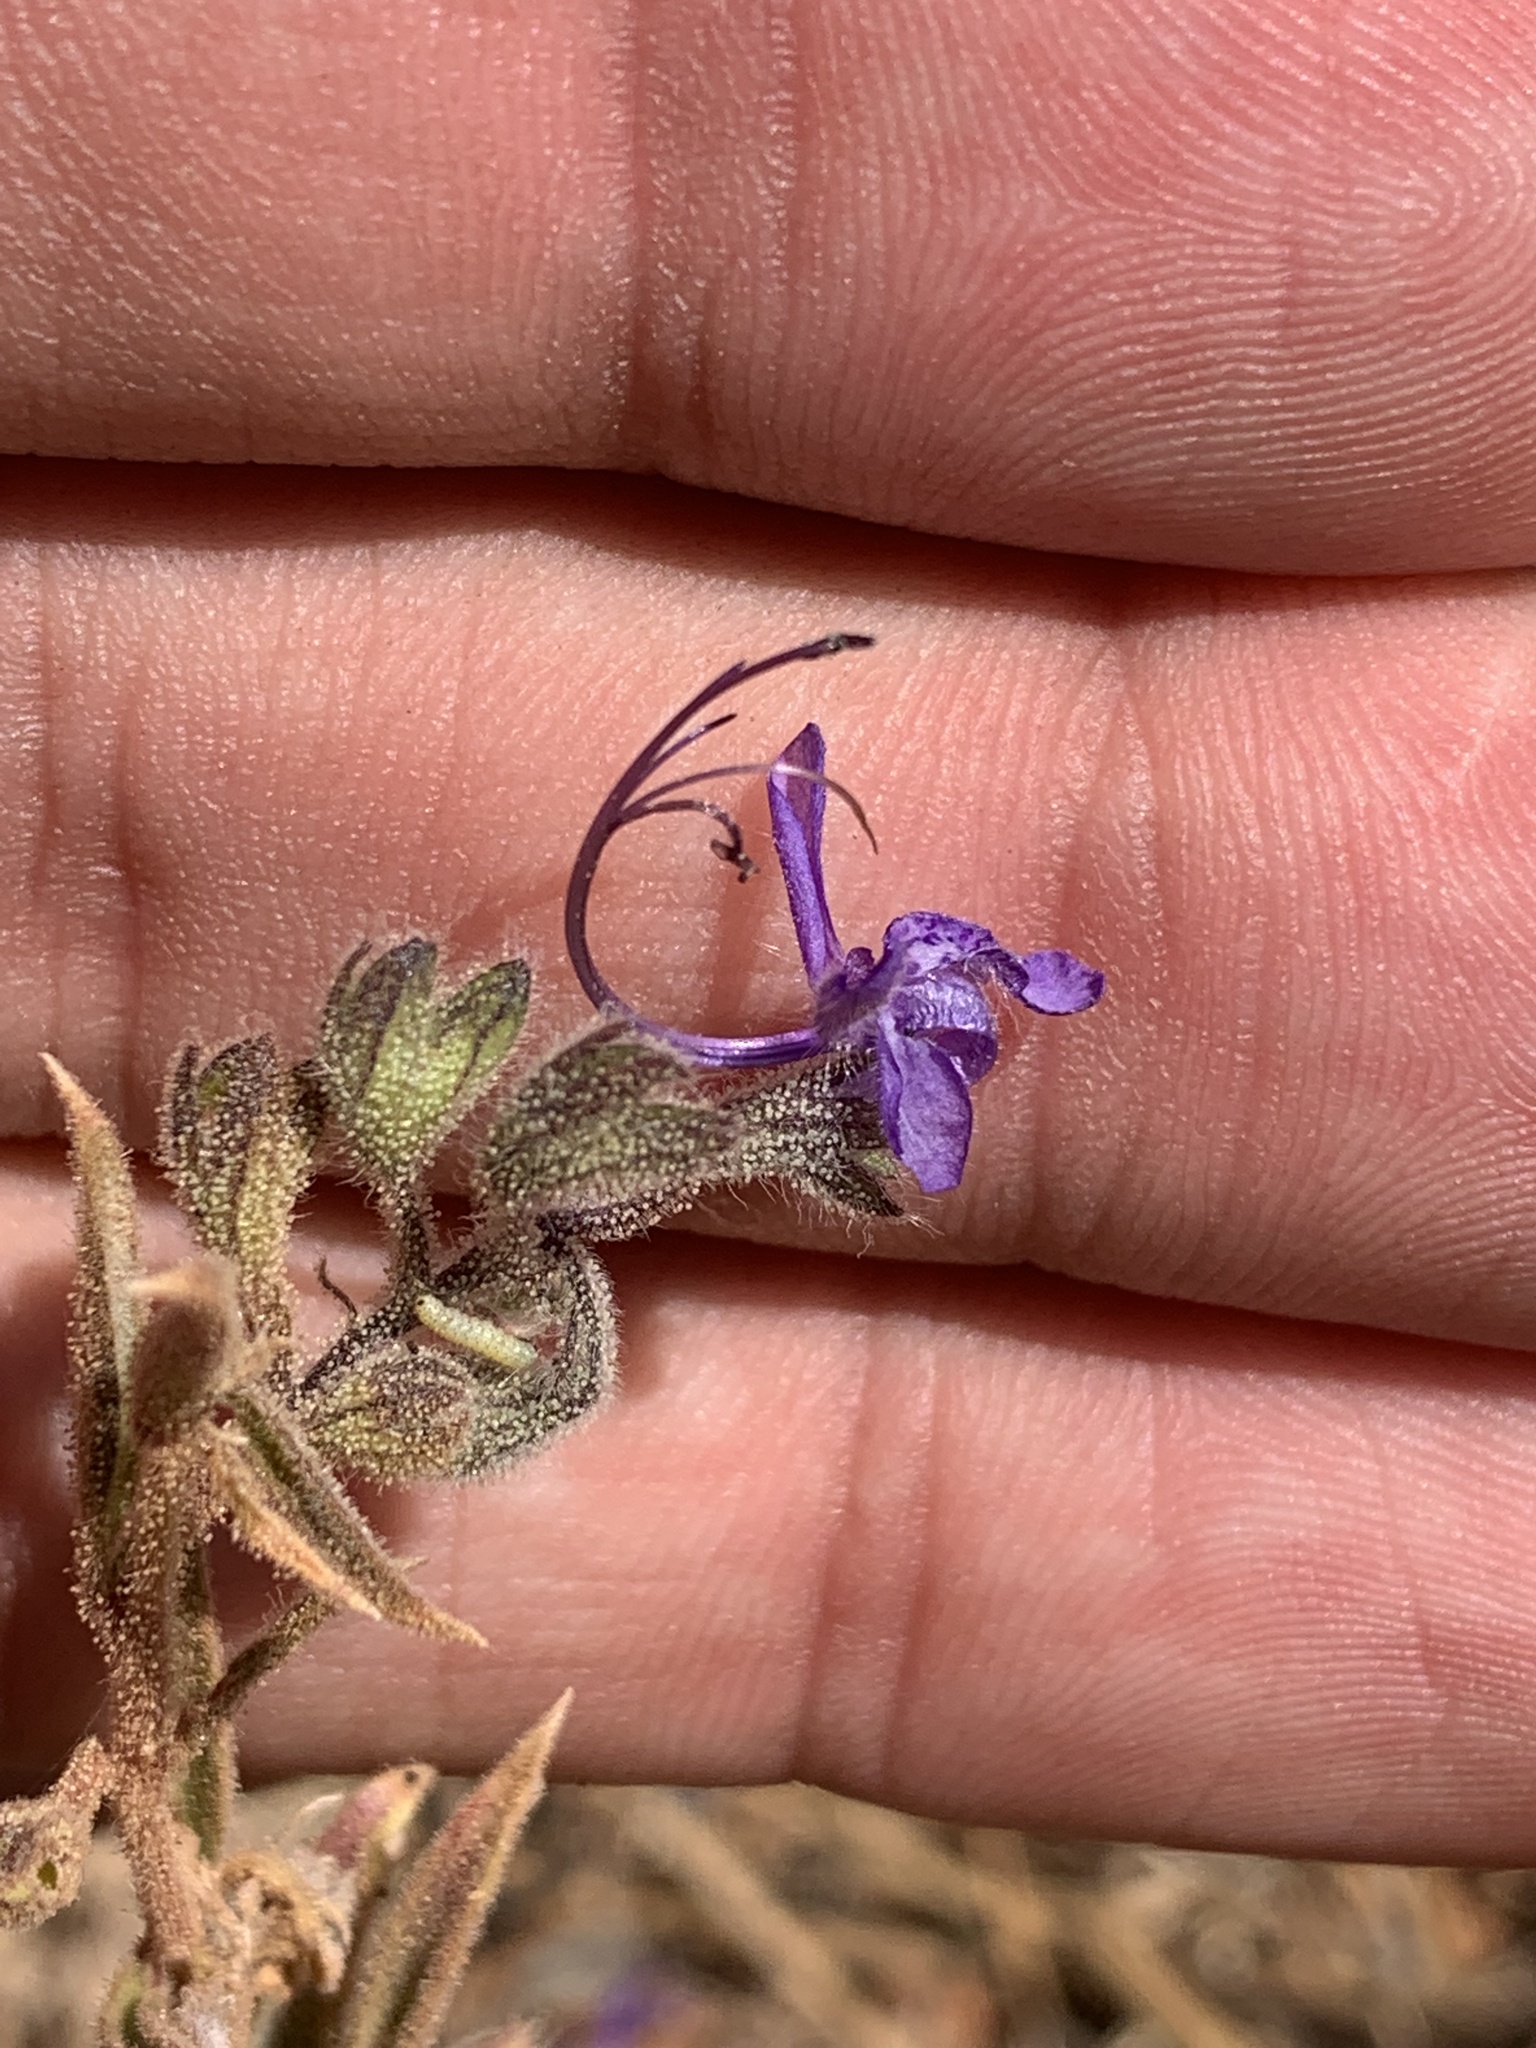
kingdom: Plantae
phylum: Tracheophyta
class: Magnoliopsida
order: Lamiales
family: Lamiaceae
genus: Trichostema
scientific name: Trichostema lanceolatum
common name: Vinegar-weed
